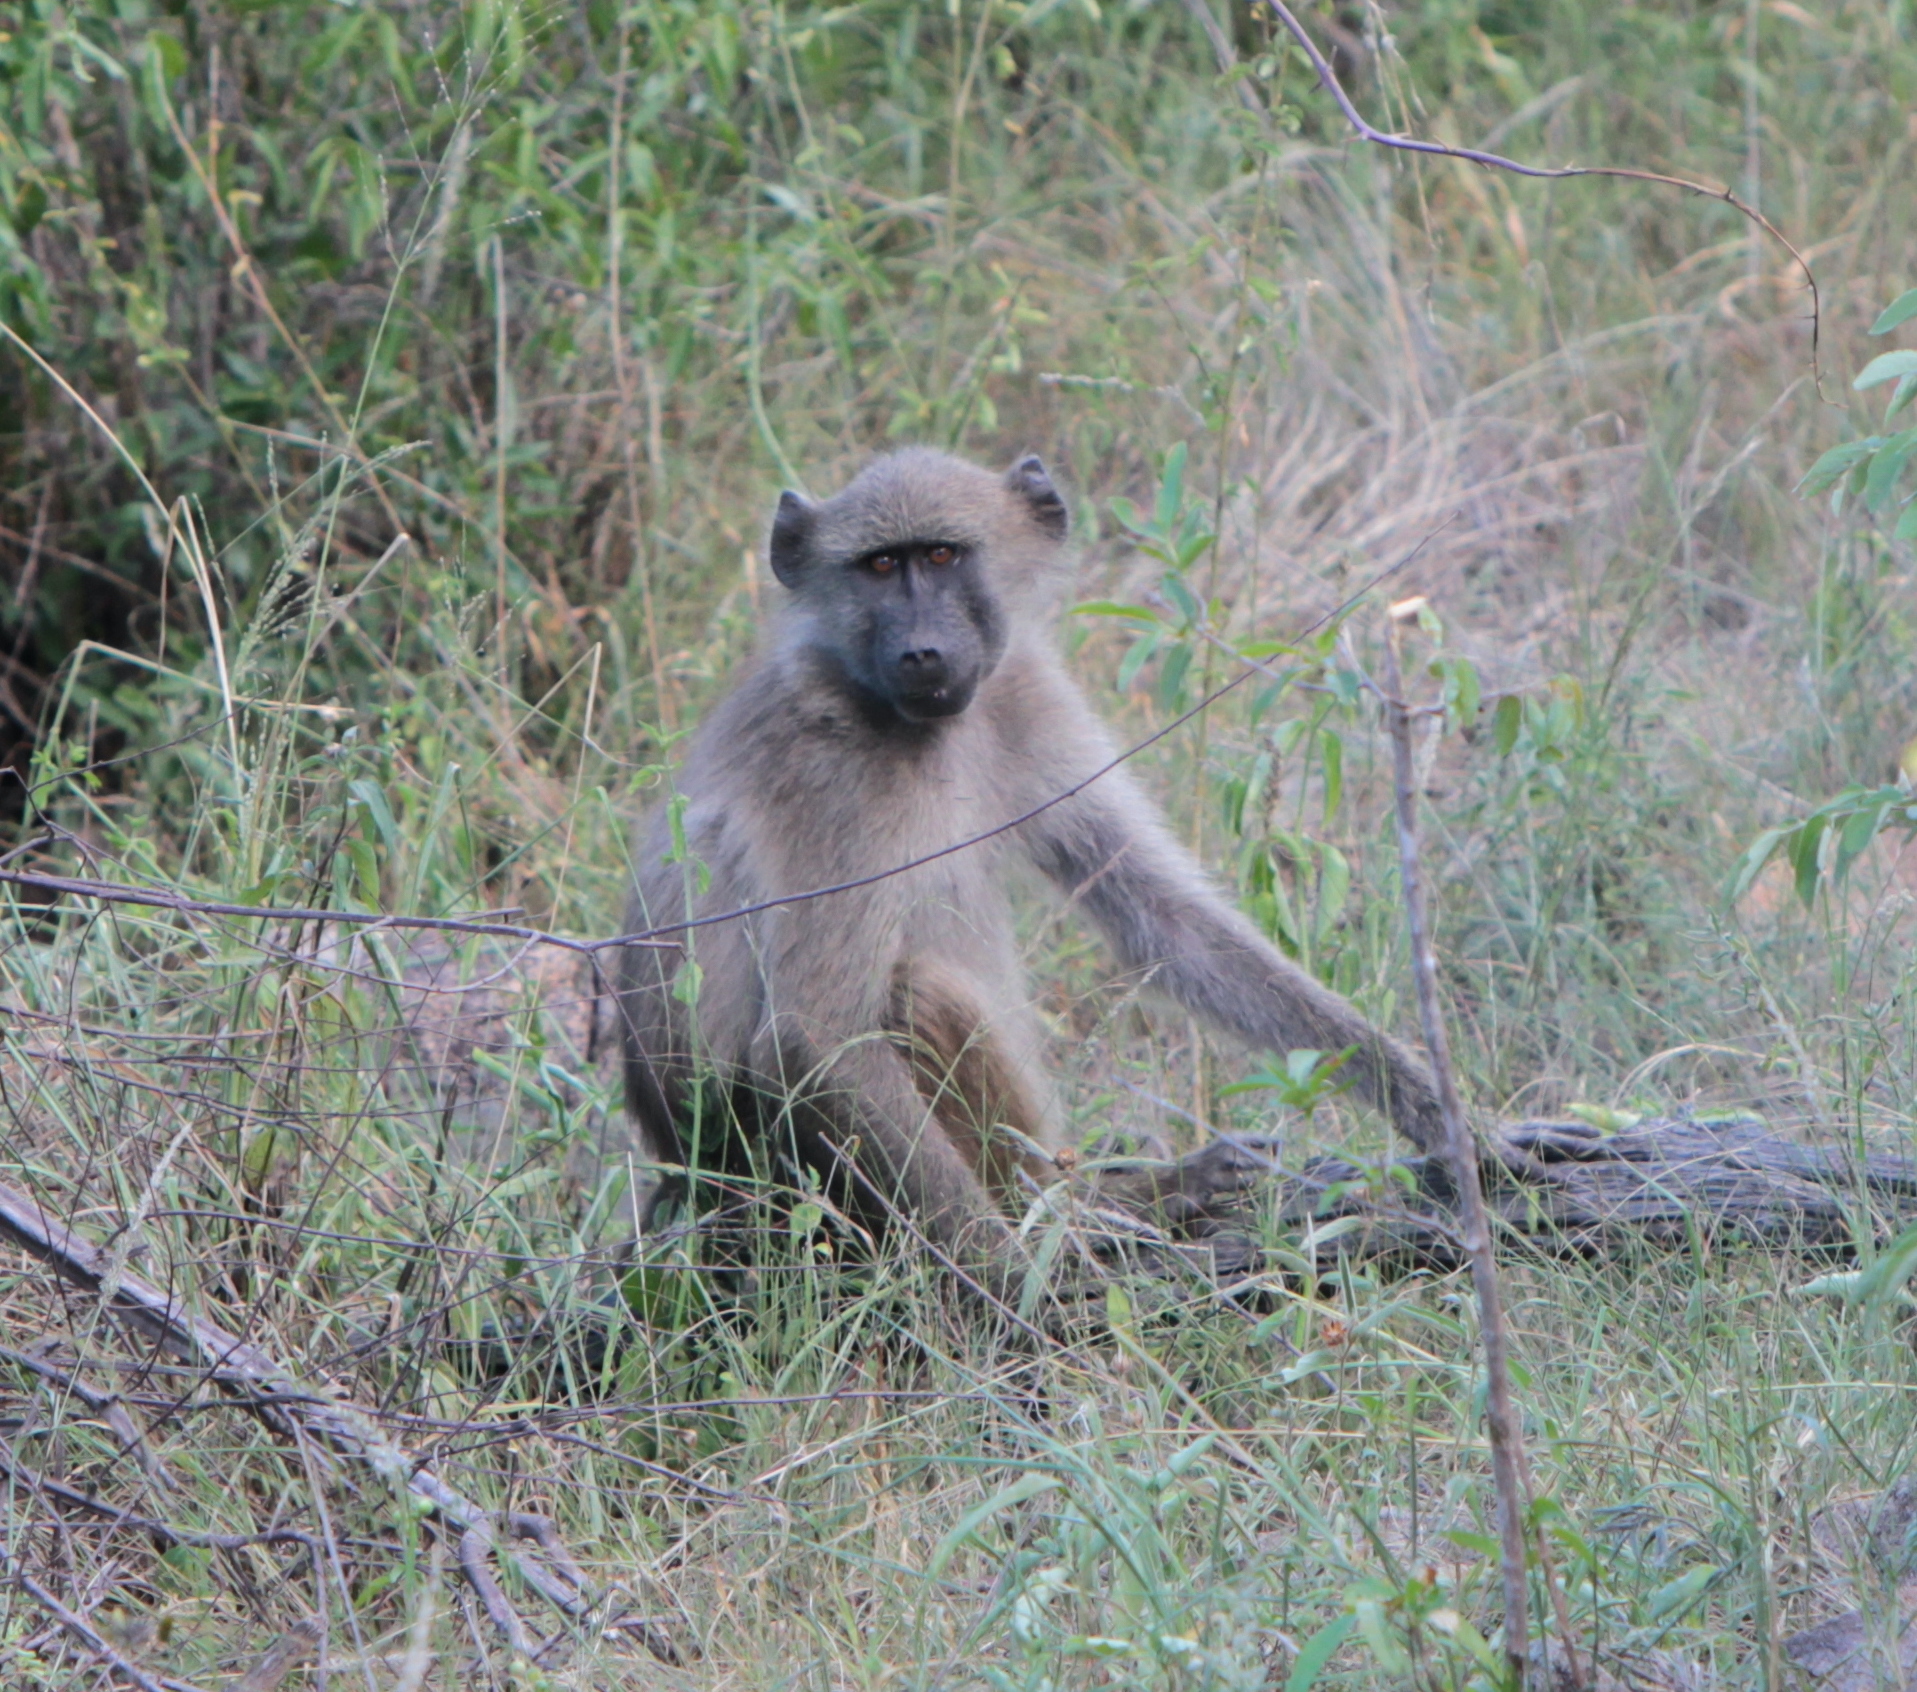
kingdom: Animalia
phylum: Chordata
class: Mammalia
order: Primates
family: Cercopithecidae
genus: Papio
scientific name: Papio ursinus
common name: Chacma baboon
